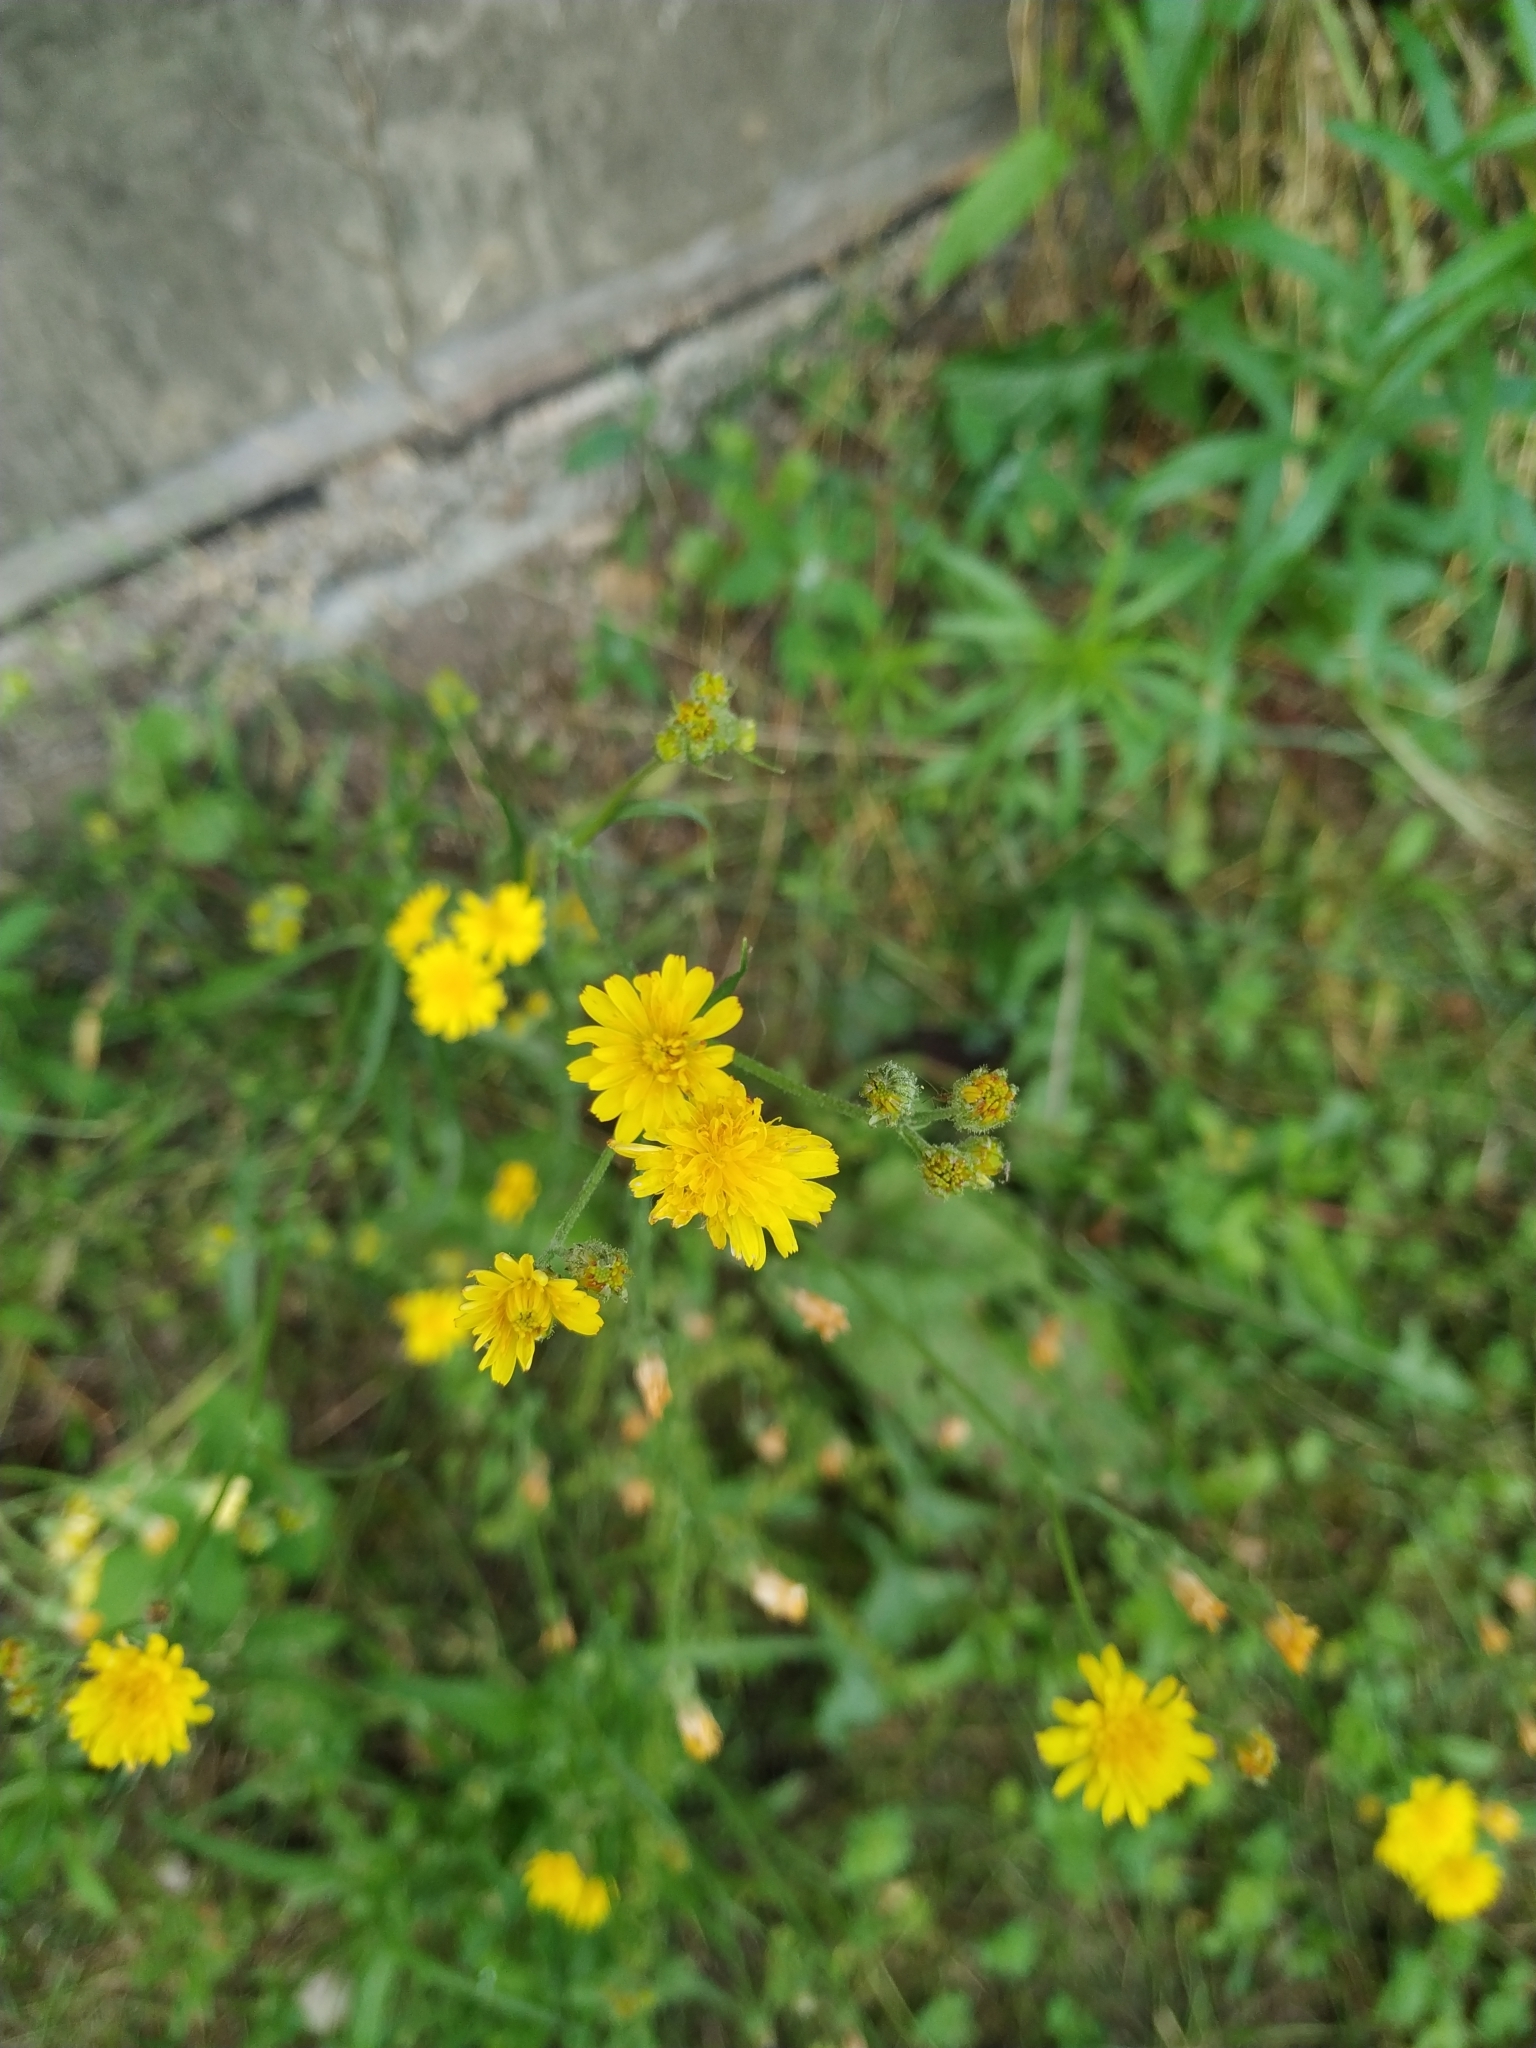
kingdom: Plantae
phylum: Tracheophyta
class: Magnoliopsida
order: Asterales
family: Asteraceae
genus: Crepis
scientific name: Crepis capillaris
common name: Smooth hawksbeard
